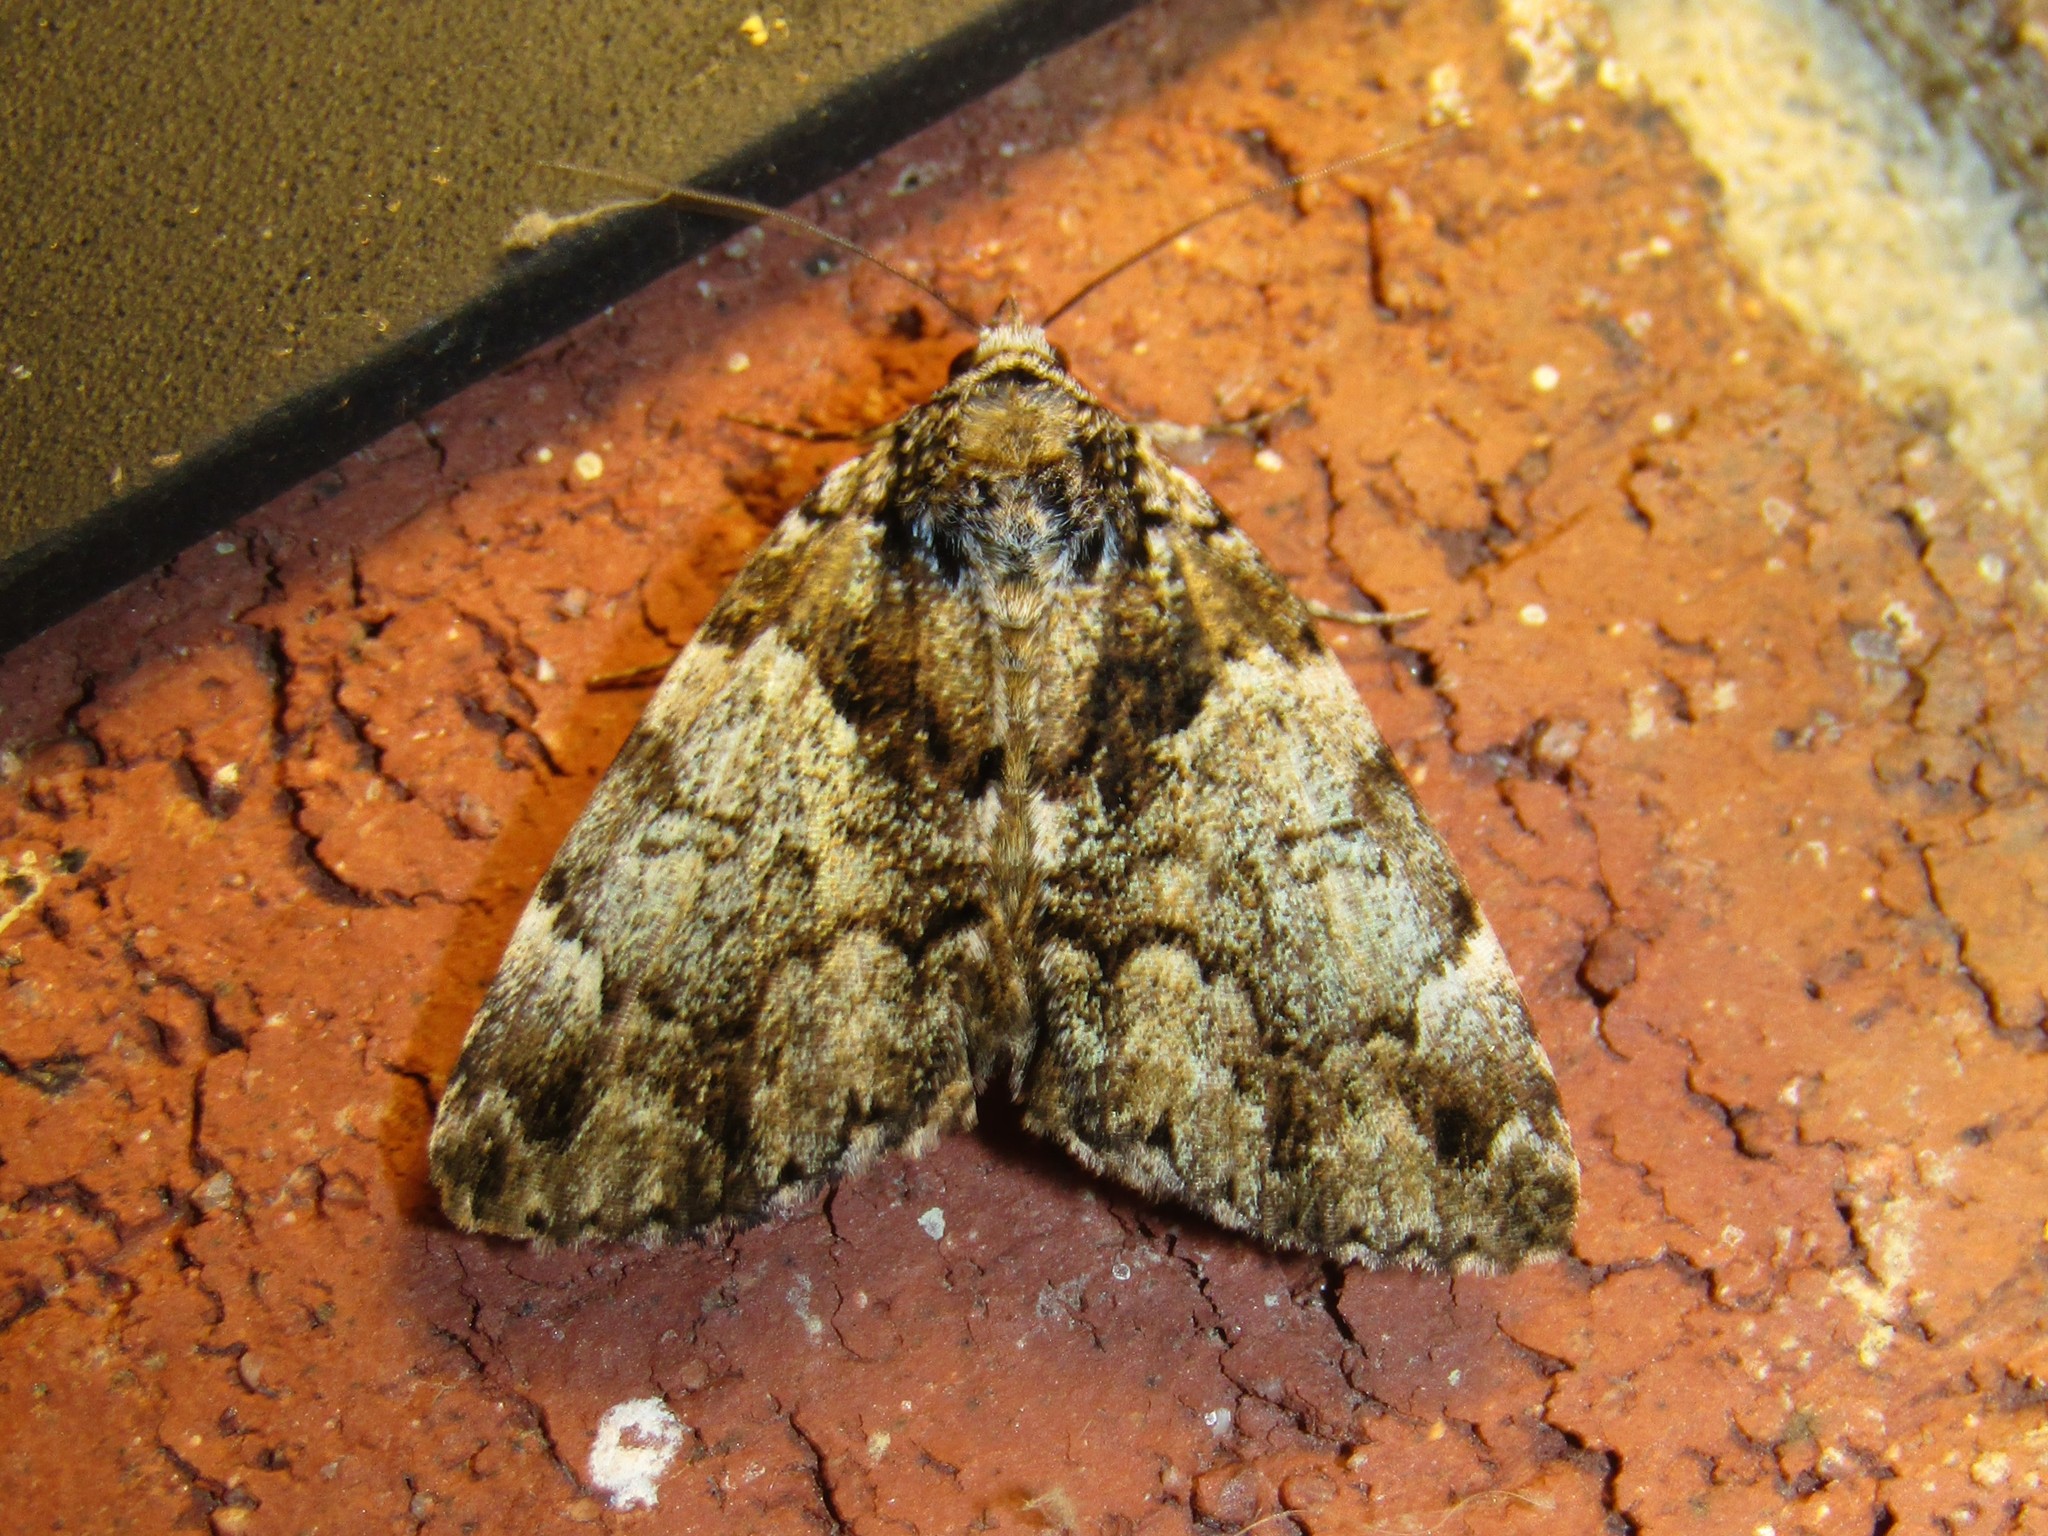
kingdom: Animalia
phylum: Arthropoda
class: Insecta
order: Lepidoptera
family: Erebidae
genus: Allotria
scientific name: Allotria elonympha
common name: False underwing
